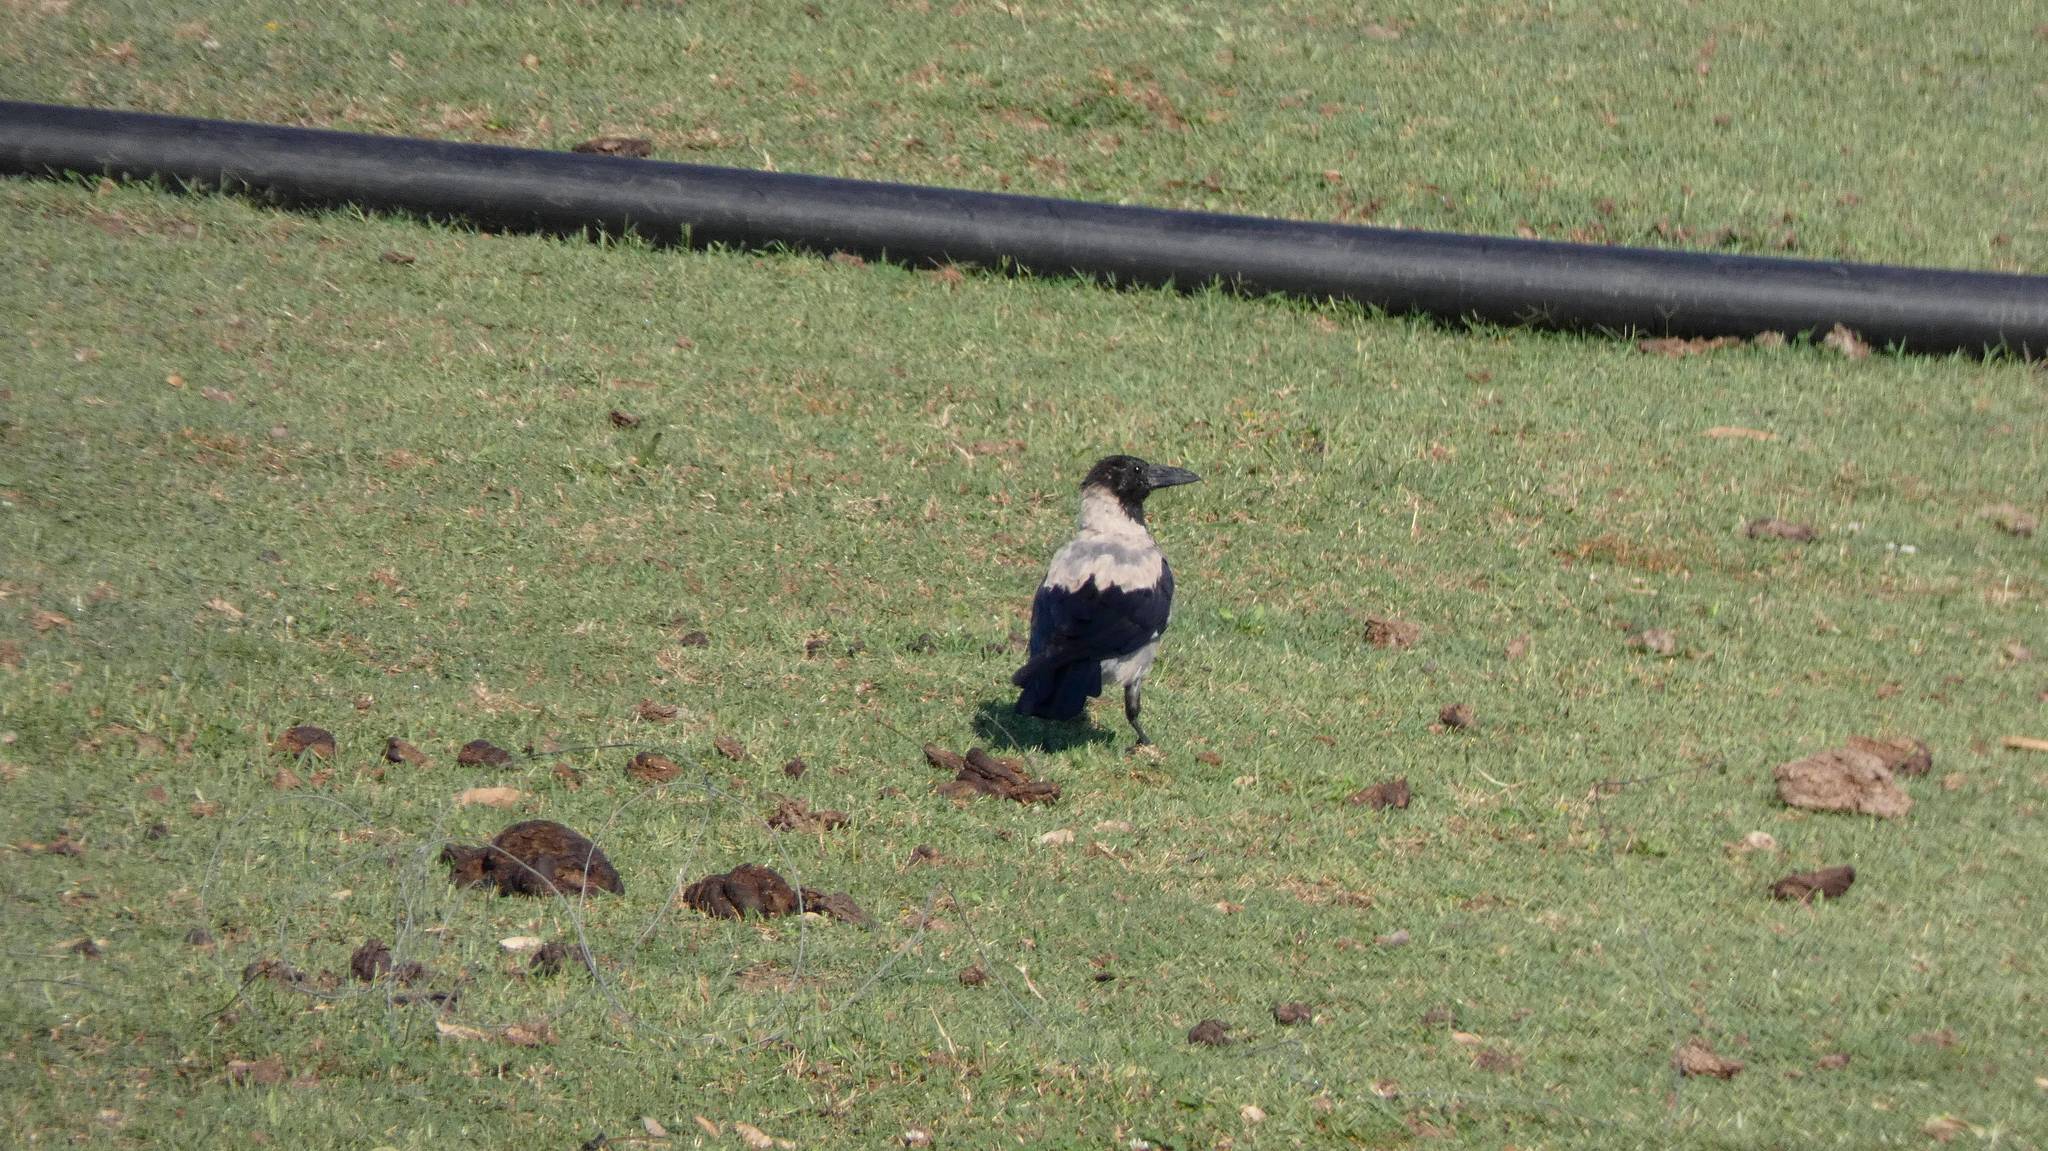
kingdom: Animalia
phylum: Chordata
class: Aves
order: Passeriformes
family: Corvidae
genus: Corvus
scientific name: Corvus cornix
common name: Hooded crow
